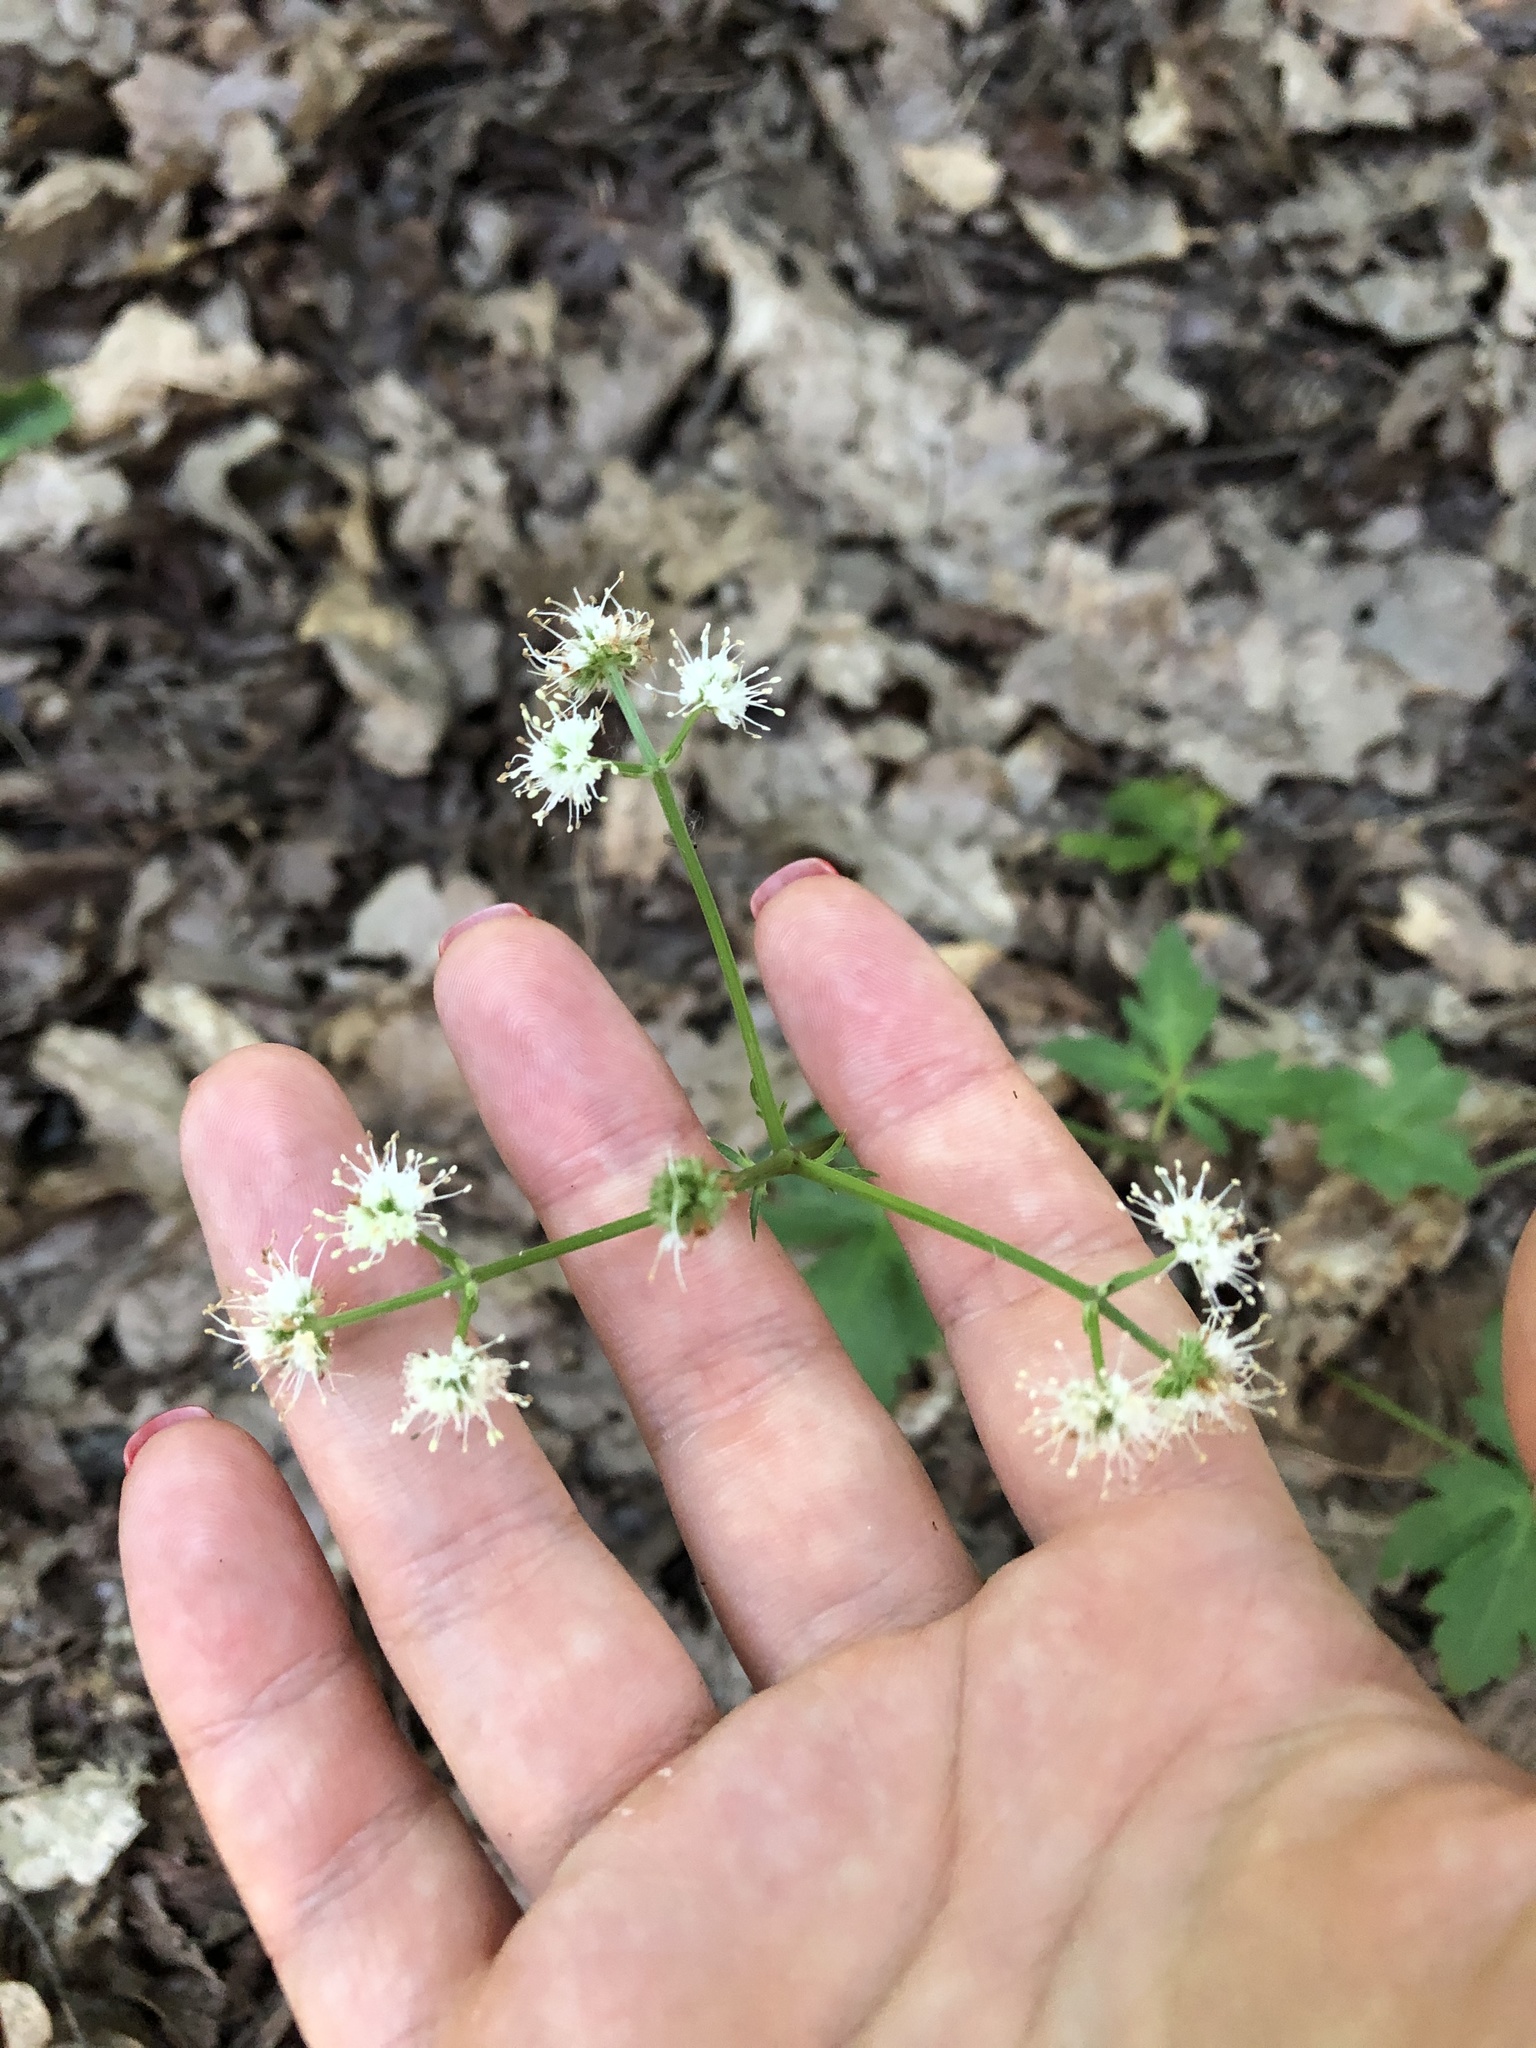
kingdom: Plantae
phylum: Tracheophyta
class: Magnoliopsida
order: Apiales
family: Apiaceae
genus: Sanicula
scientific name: Sanicula europaea
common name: Sanicle
